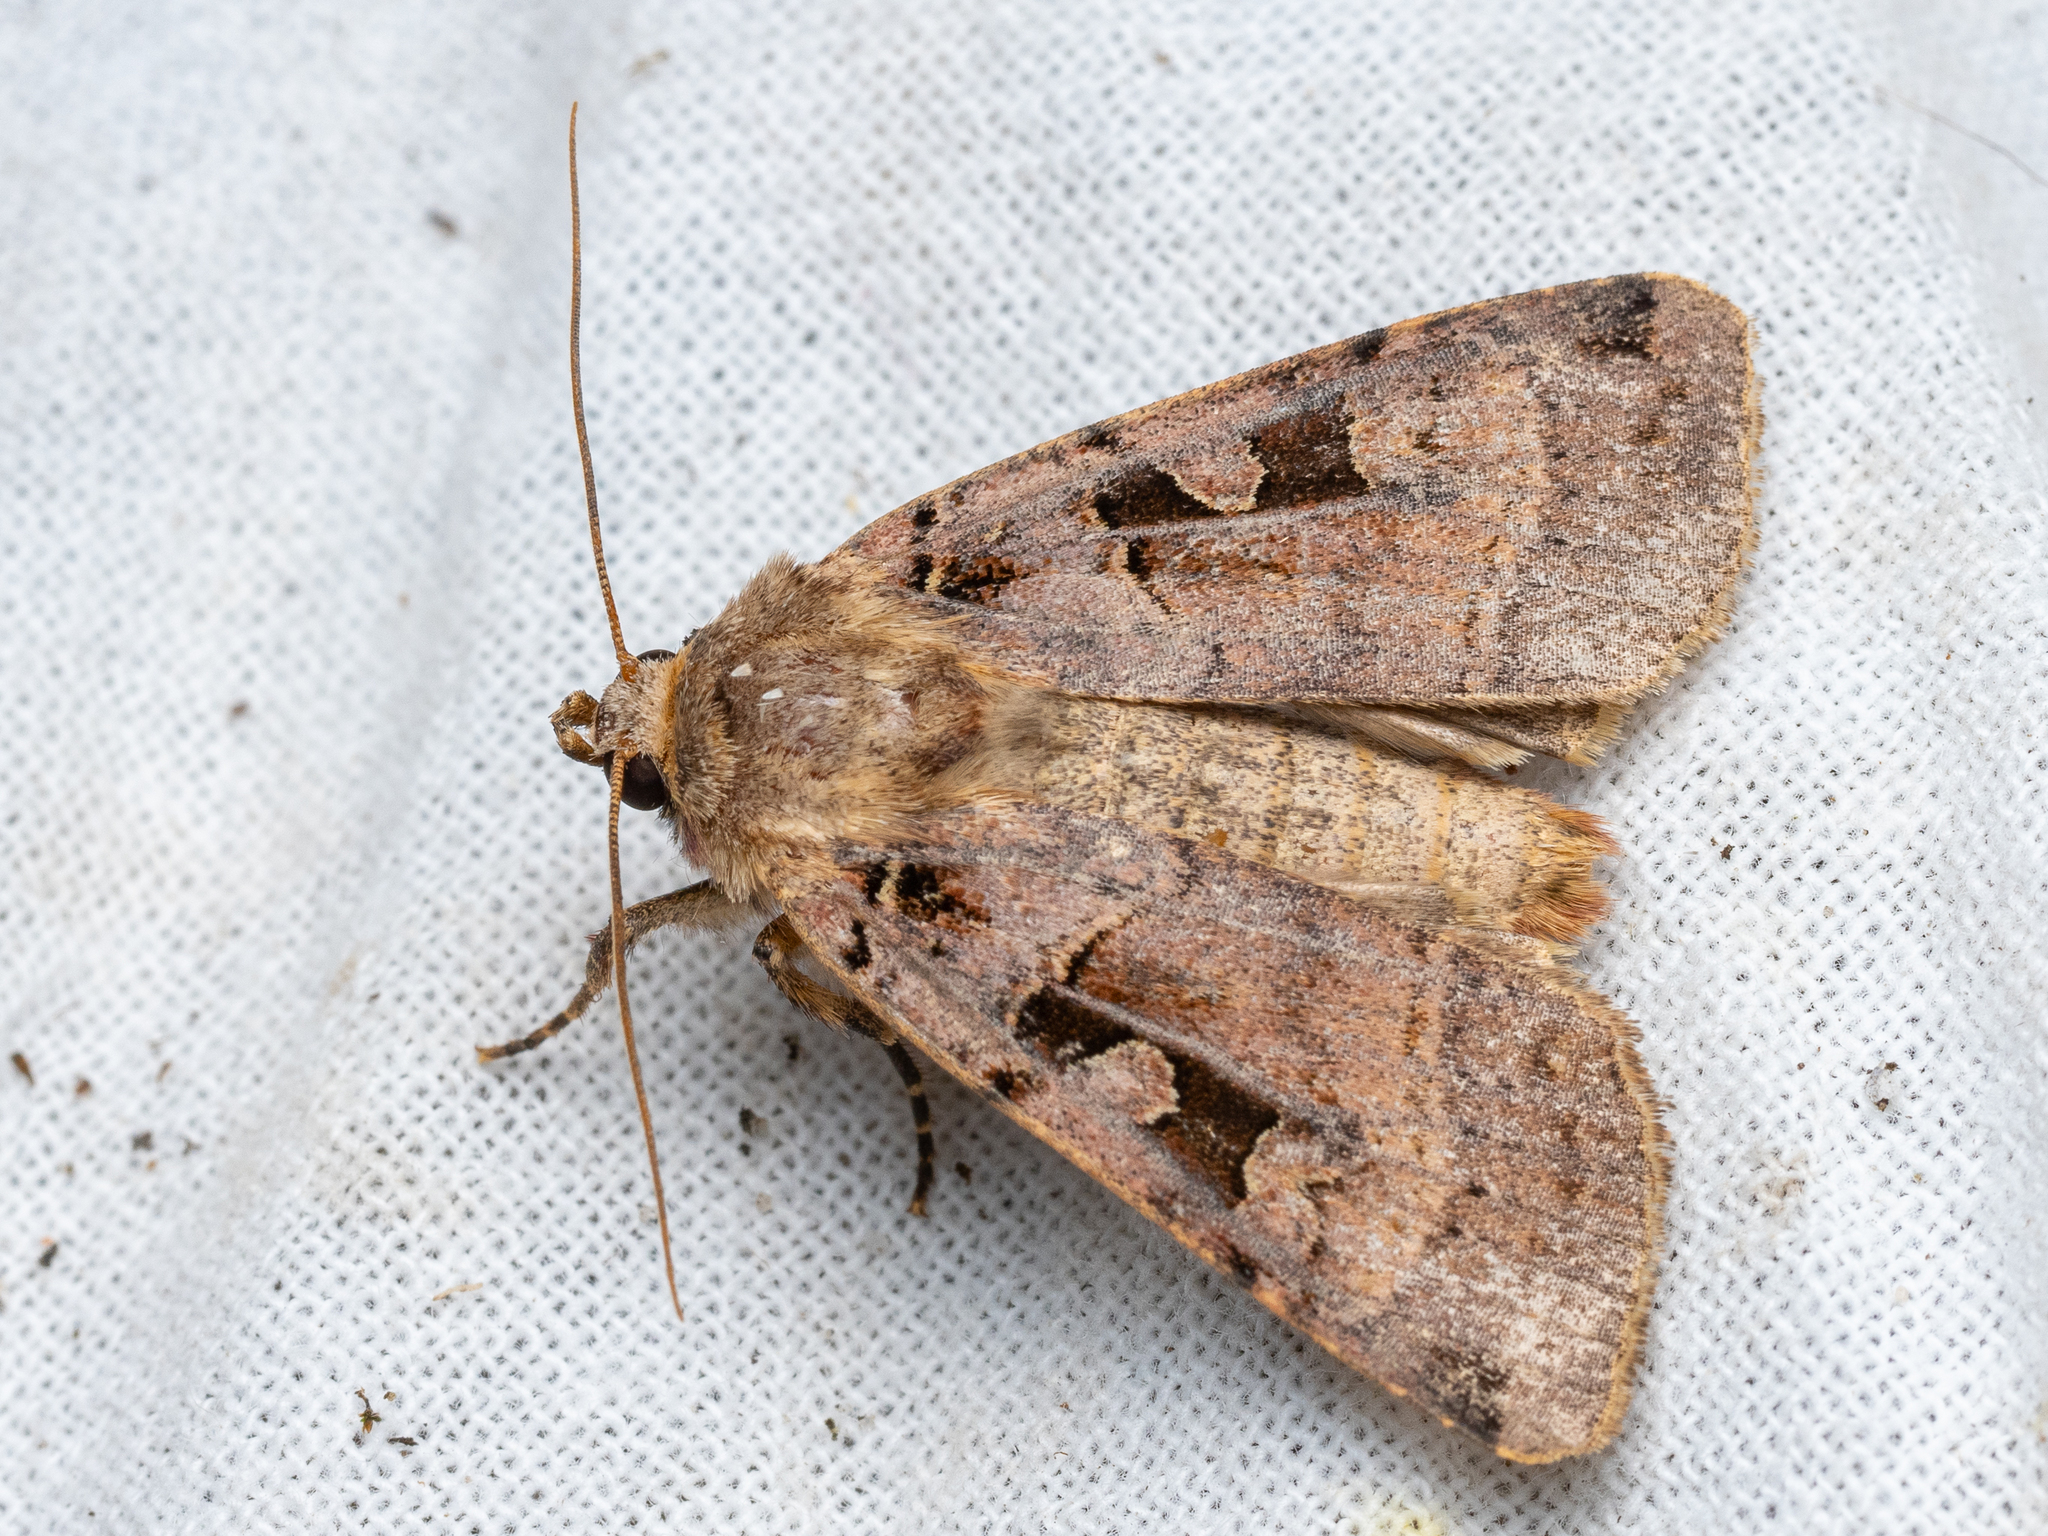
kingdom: Animalia
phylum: Arthropoda
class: Insecta
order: Lepidoptera
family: Noctuidae
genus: Xestia
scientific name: Xestia triangulum
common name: Double square-spot
